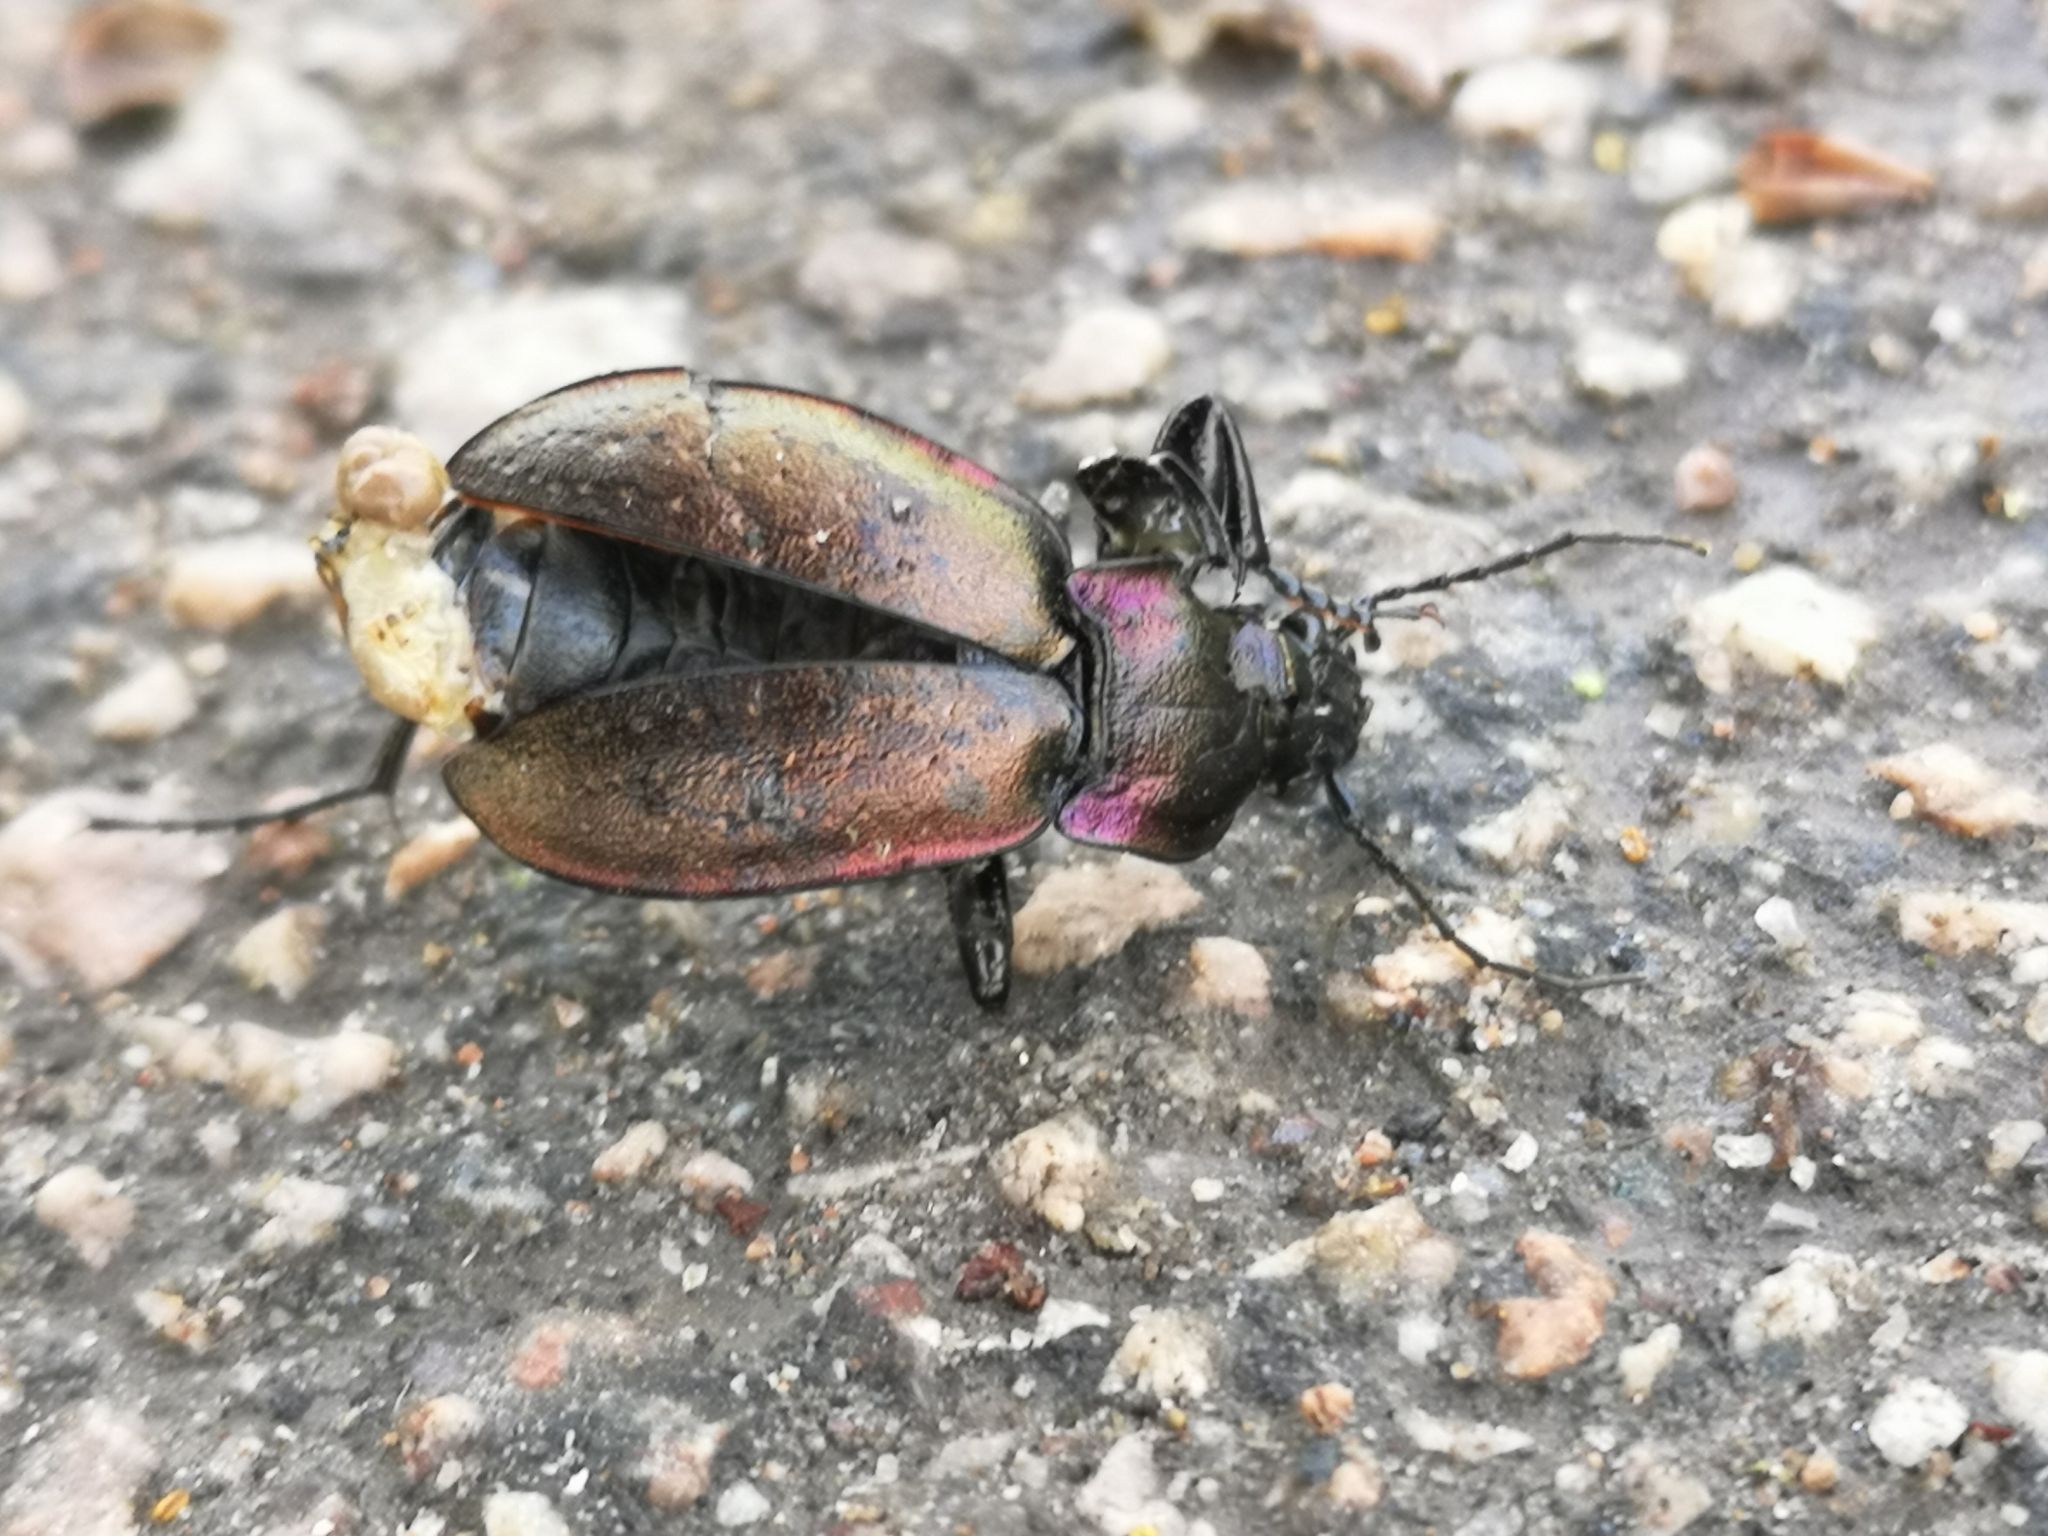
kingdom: Animalia
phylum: Arthropoda
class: Insecta
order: Coleoptera
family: Carabidae
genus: Carabus
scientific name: Carabus nemoralis
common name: European ground beetle
